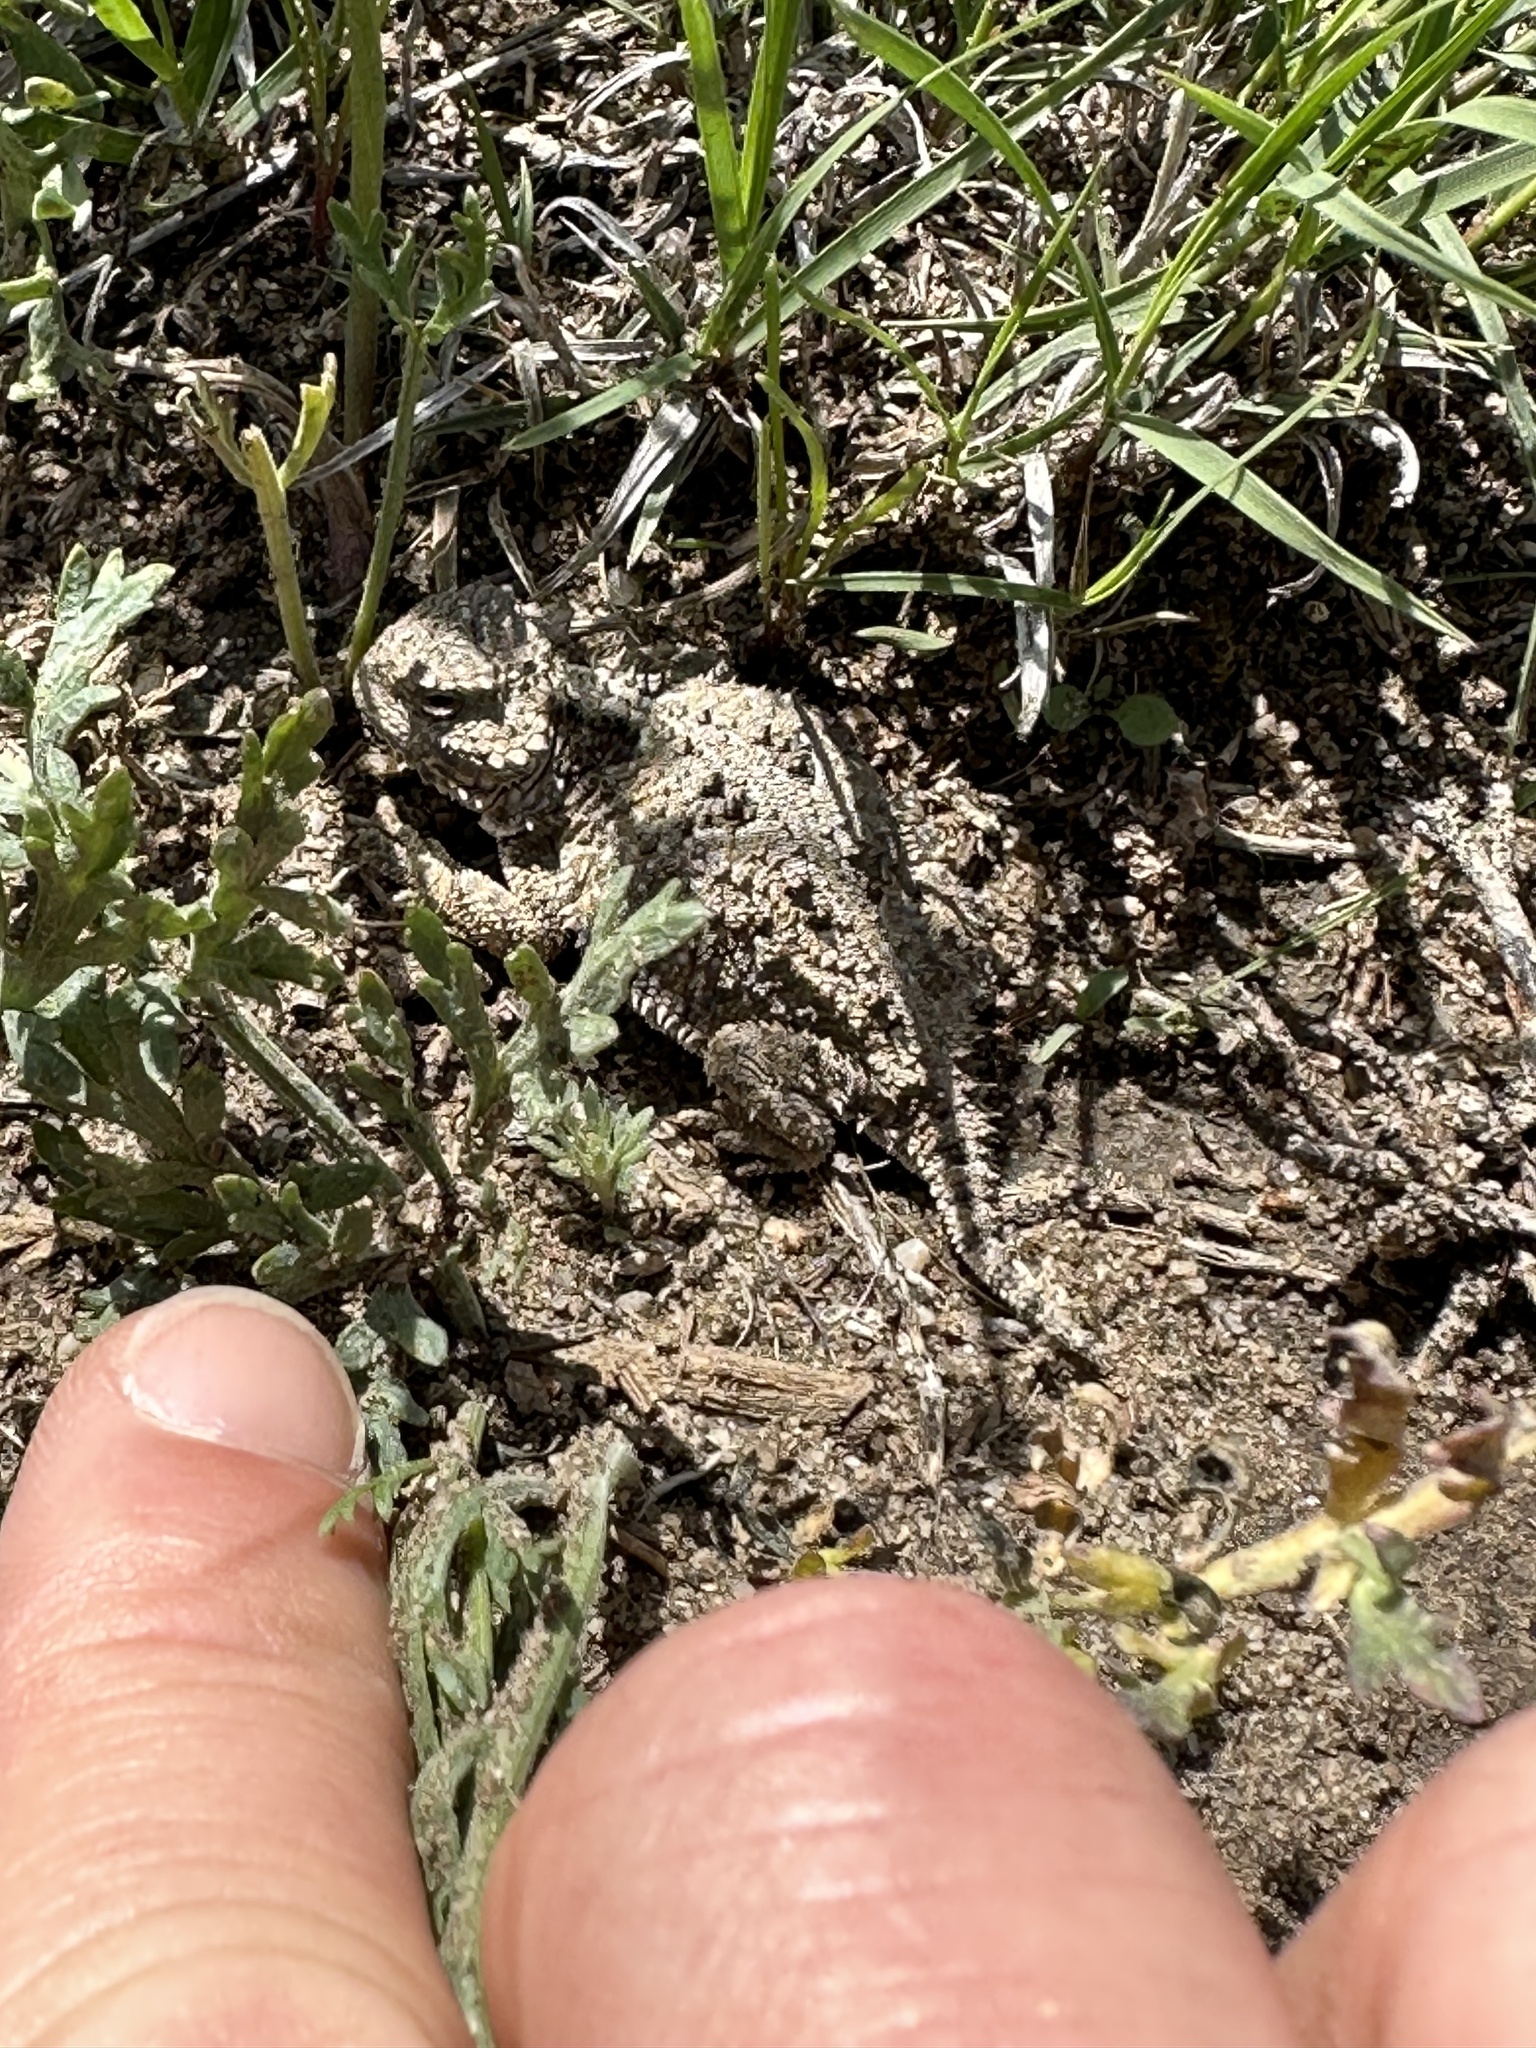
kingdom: Animalia
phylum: Chordata
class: Squamata
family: Phrynosomatidae
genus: Phrynosoma
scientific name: Phrynosoma hernandesi
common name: Greater short-horned lizard
